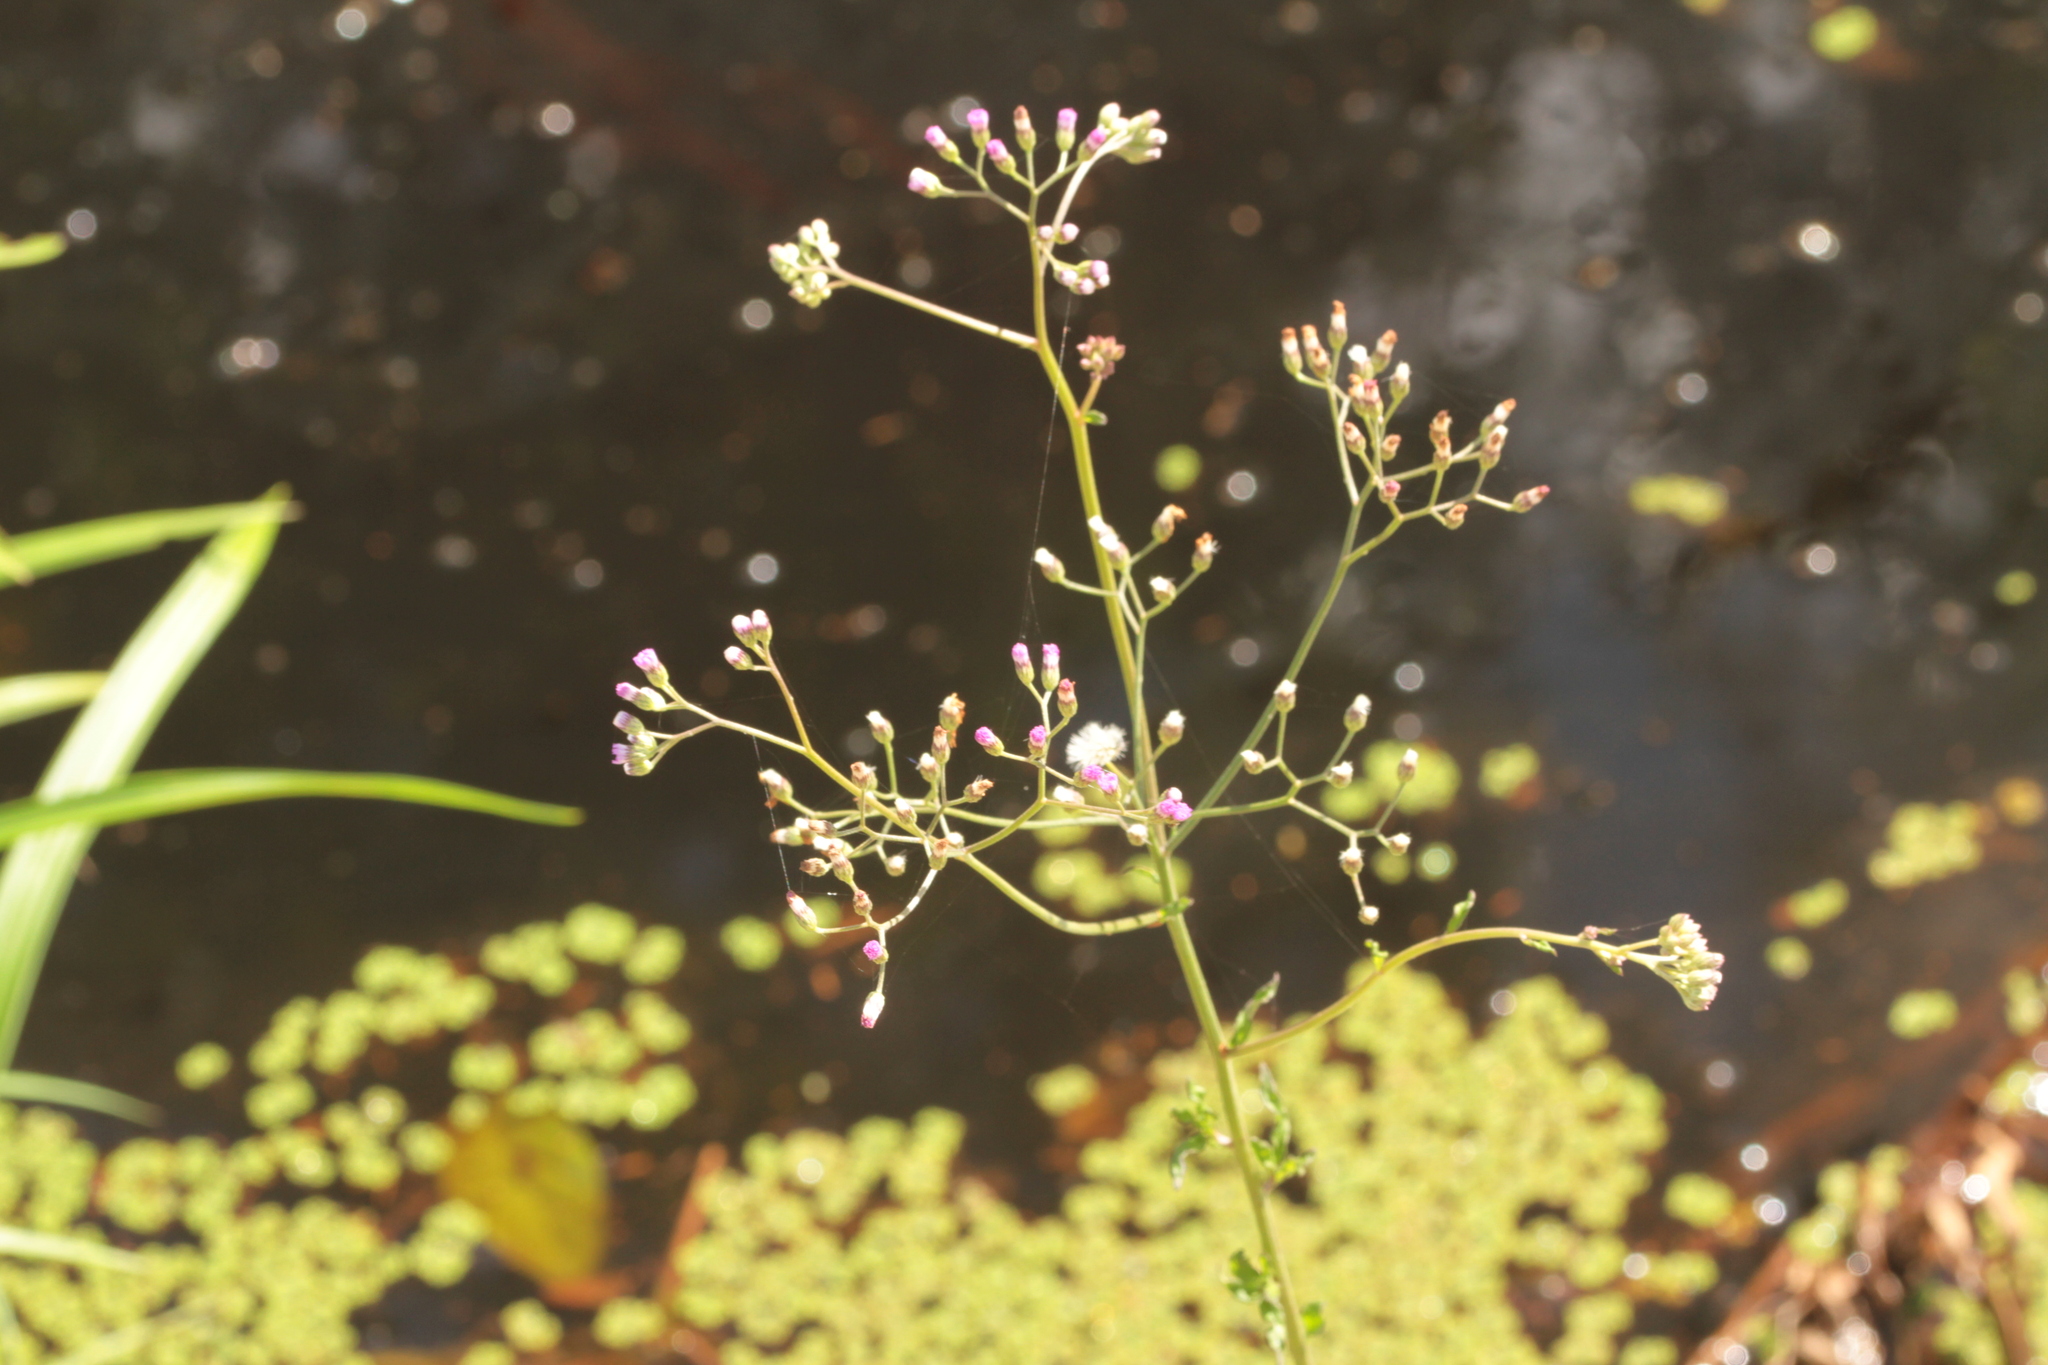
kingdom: Plantae
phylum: Tracheophyta
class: Magnoliopsida
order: Asterales
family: Asteraceae
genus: Cyanthillium
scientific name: Cyanthillium cinereum
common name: Little ironweed
